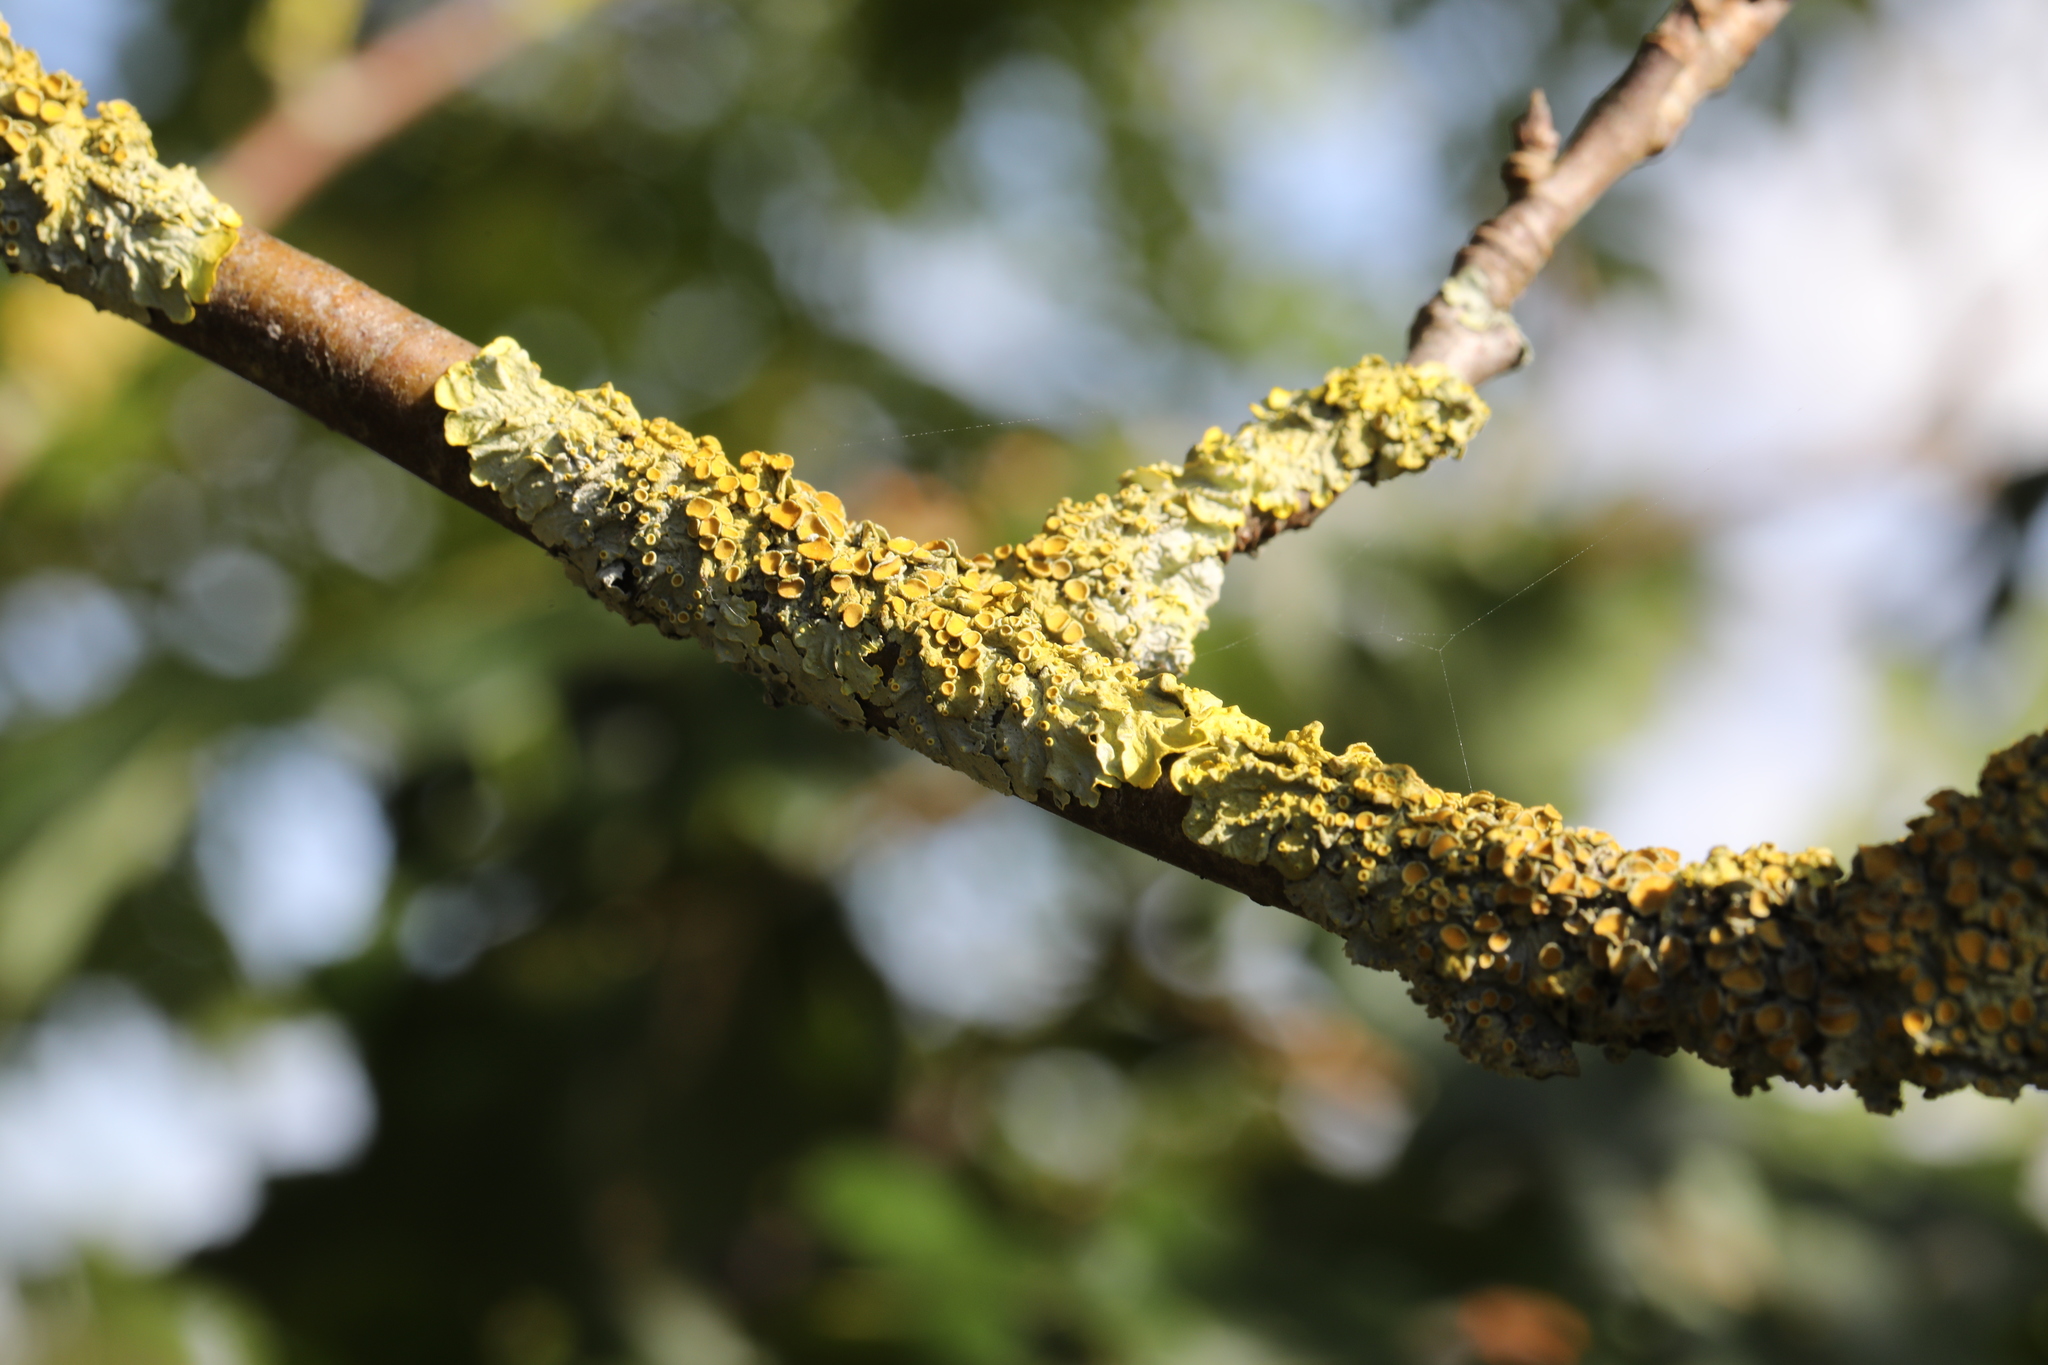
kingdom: Fungi
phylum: Ascomycota
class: Lecanoromycetes
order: Teloschistales
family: Teloschistaceae
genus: Xanthoria
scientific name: Xanthoria parietina
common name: Common orange lichen
